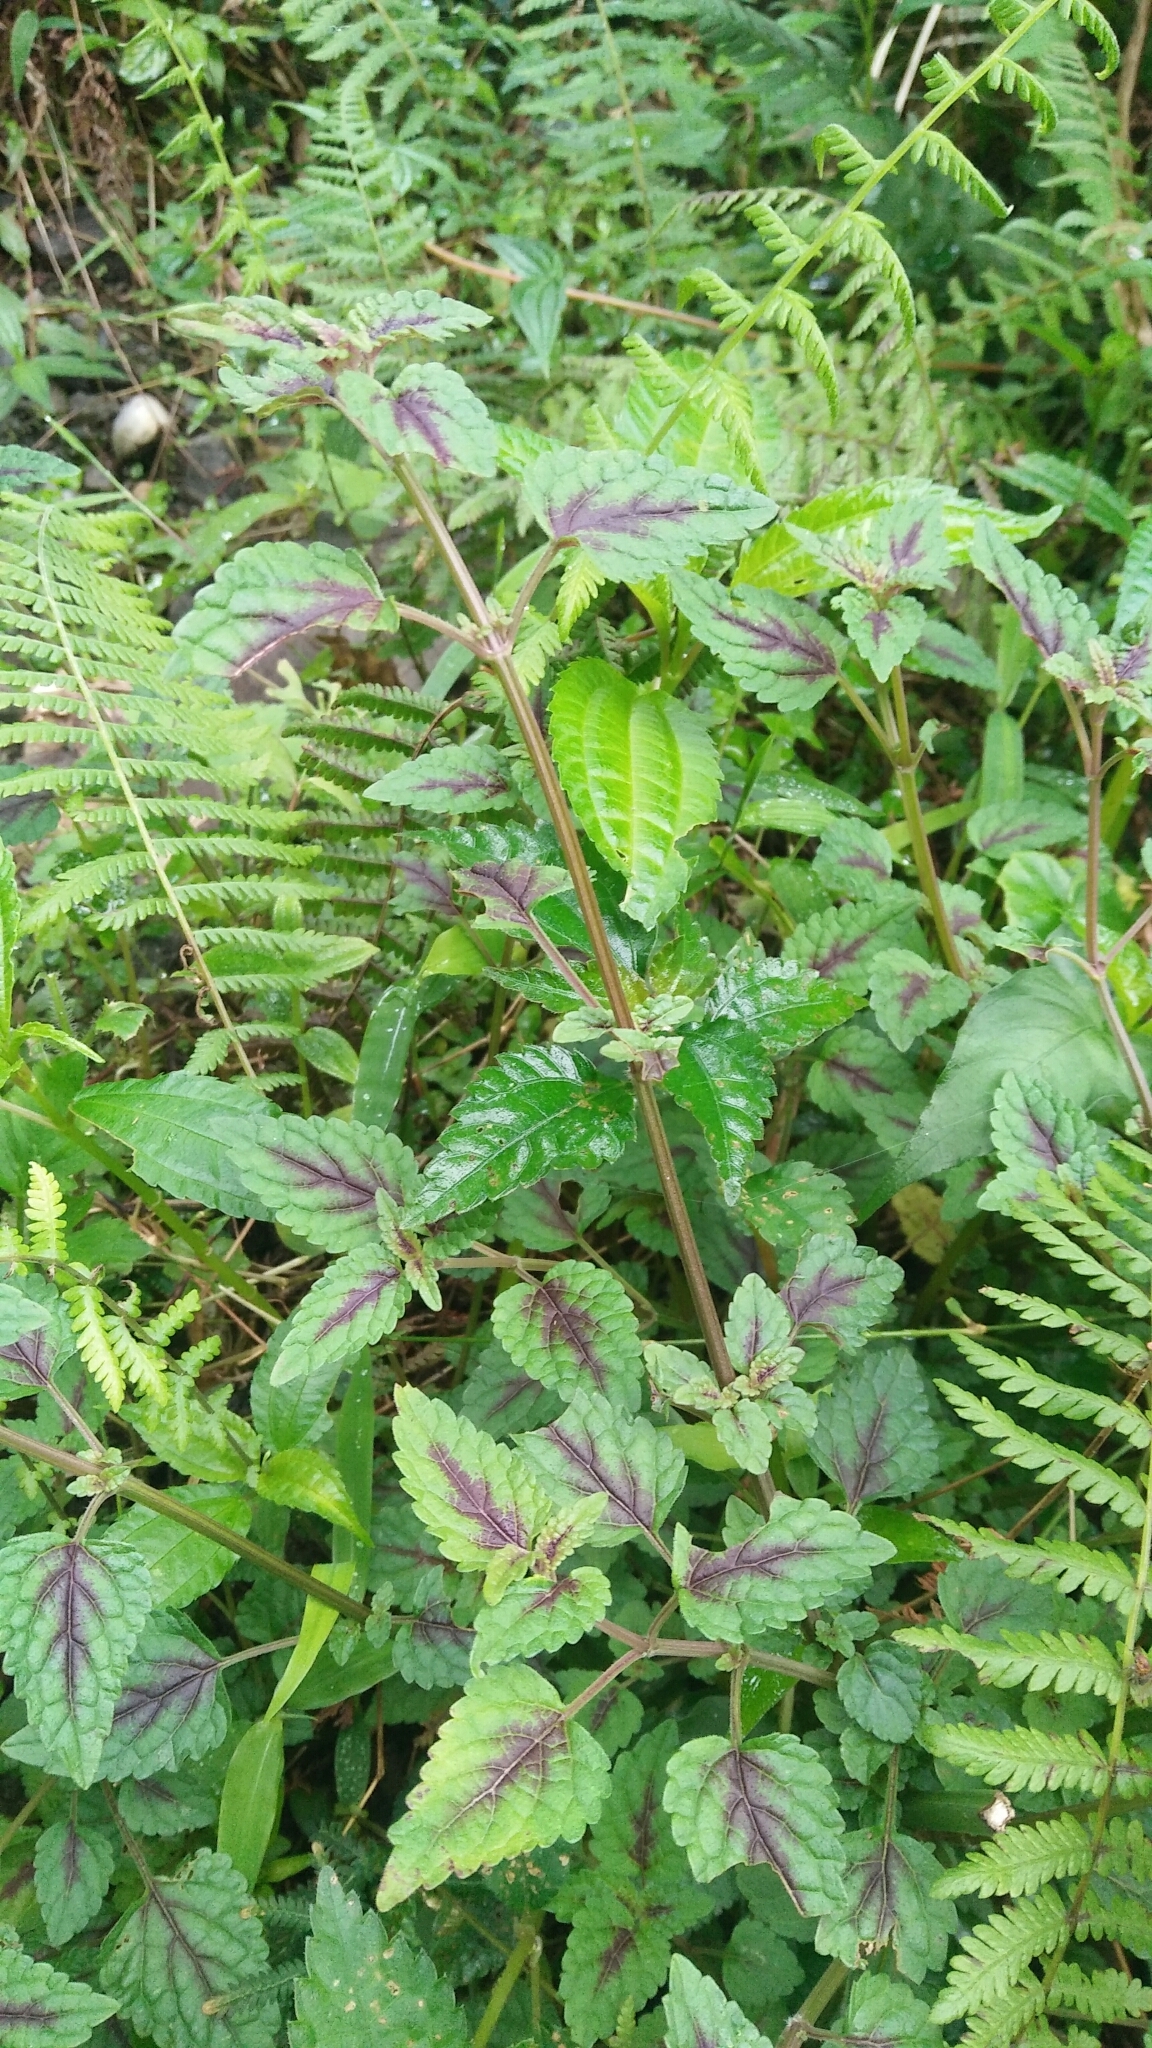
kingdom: Plantae
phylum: Tracheophyta
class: Magnoliopsida
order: Lamiales
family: Lamiaceae
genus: Melissa
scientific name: Melissa axillaris
